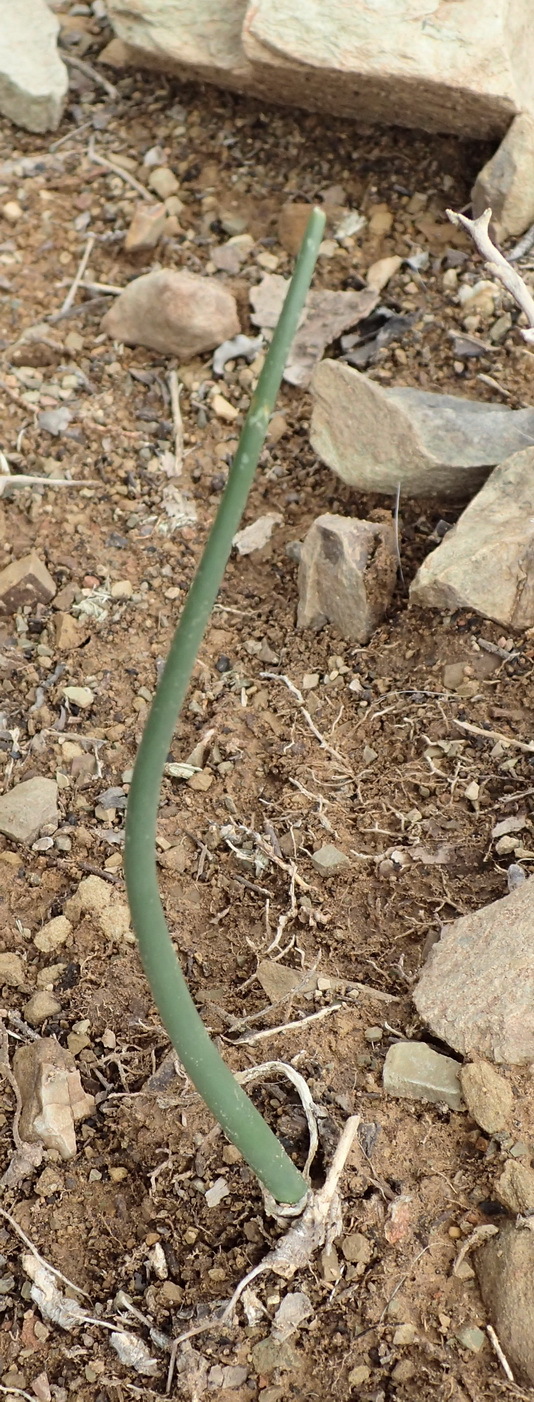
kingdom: Plantae
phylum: Tracheophyta
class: Liliopsida
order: Asparagales
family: Asparagaceae
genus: Drimia
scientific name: Drimia anomala
